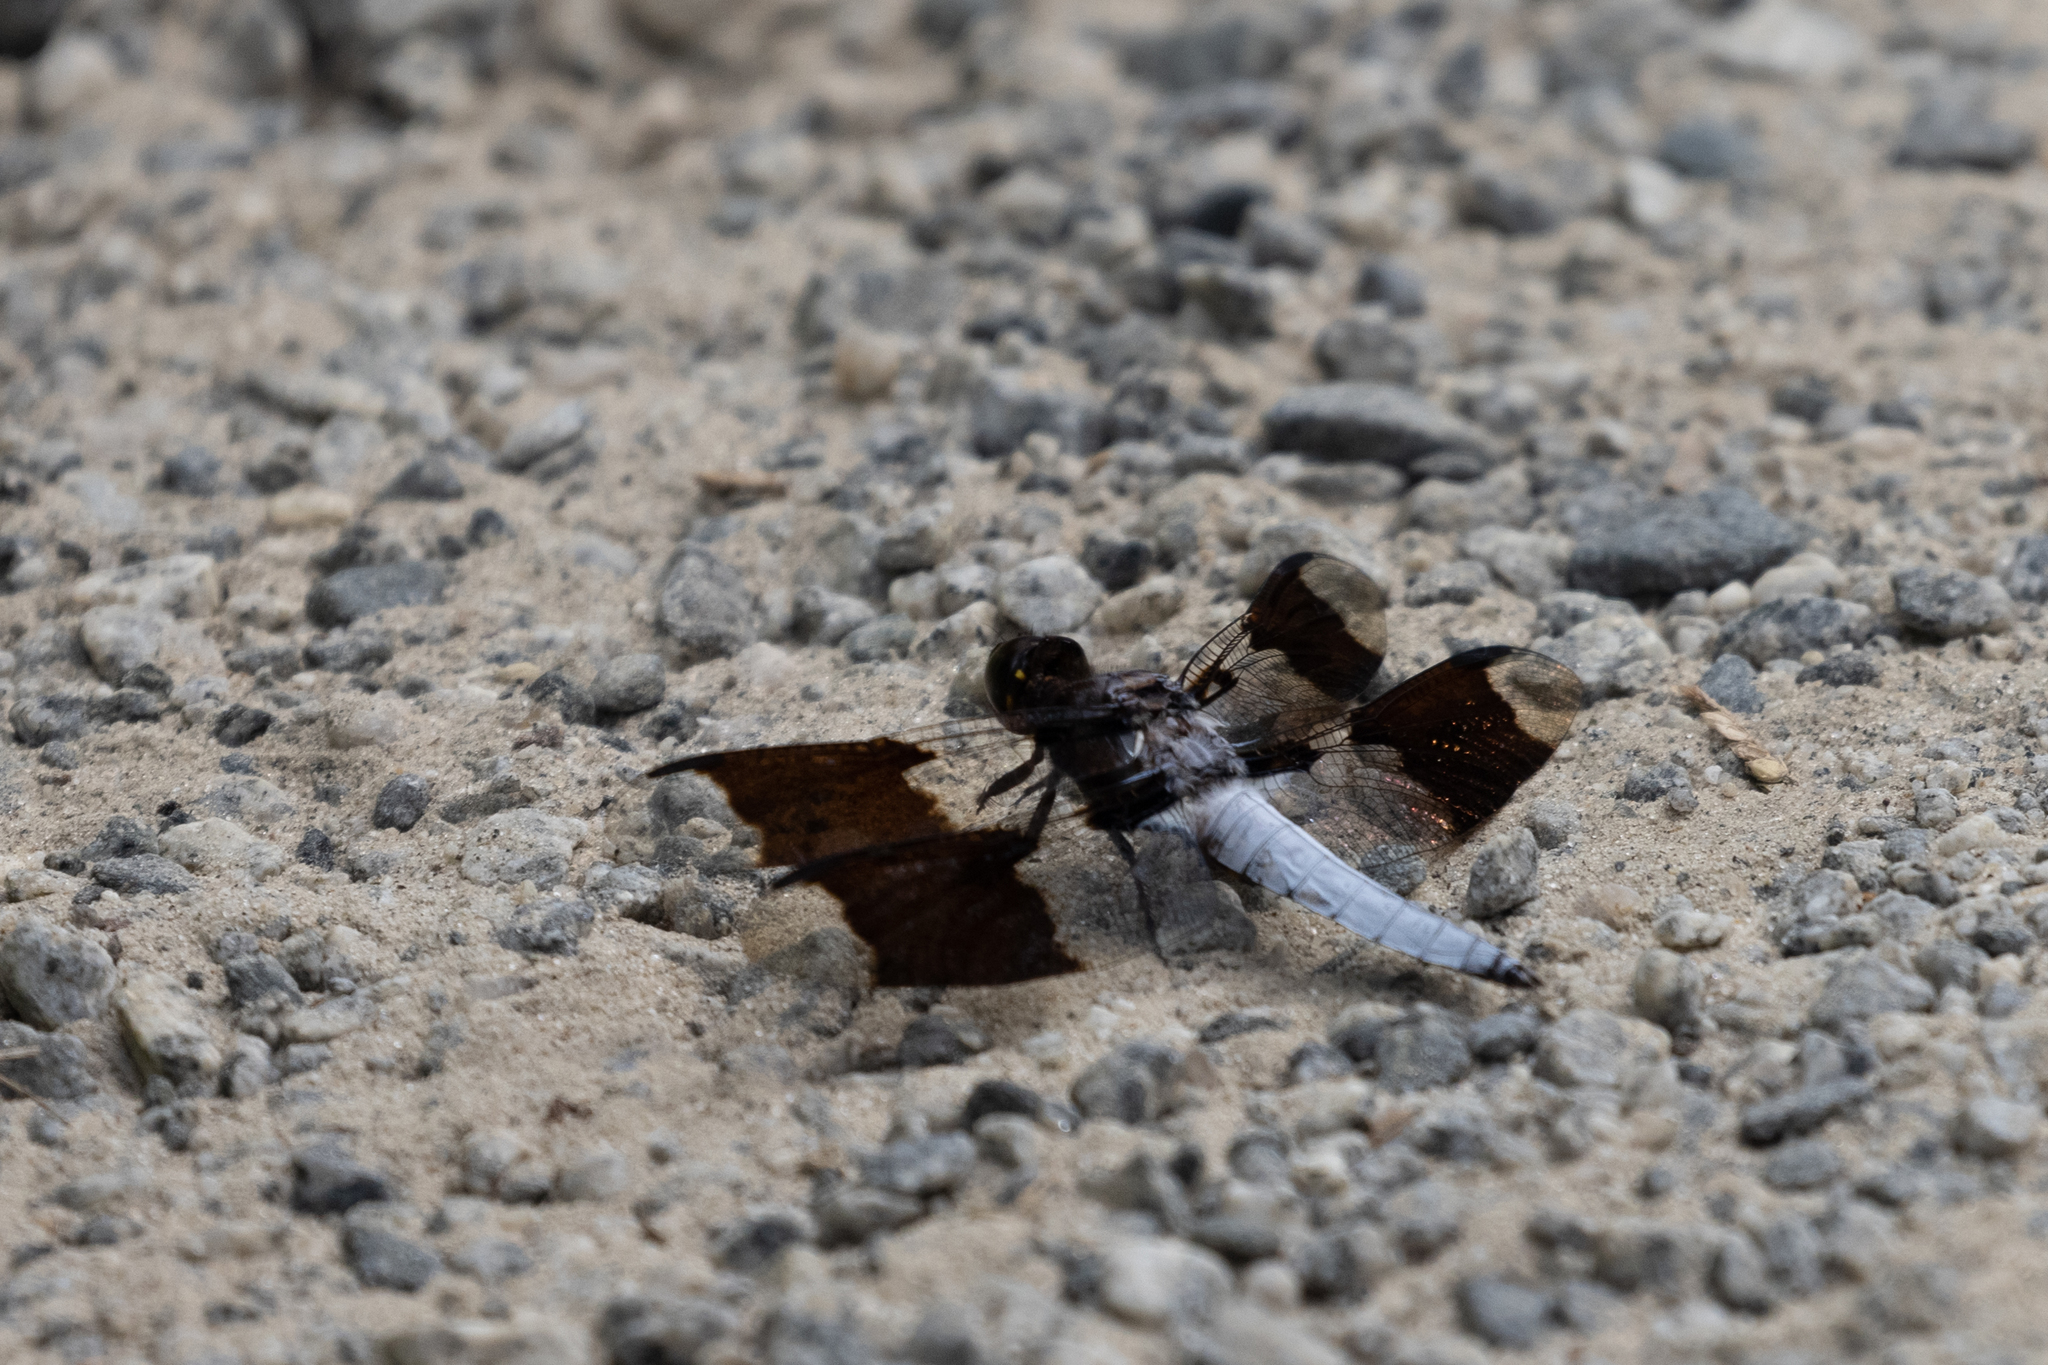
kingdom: Animalia
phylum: Arthropoda
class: Insecta
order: Odonata
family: Libellulidae
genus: Plathemis
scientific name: Plathemis lydia
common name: Common whitetail
